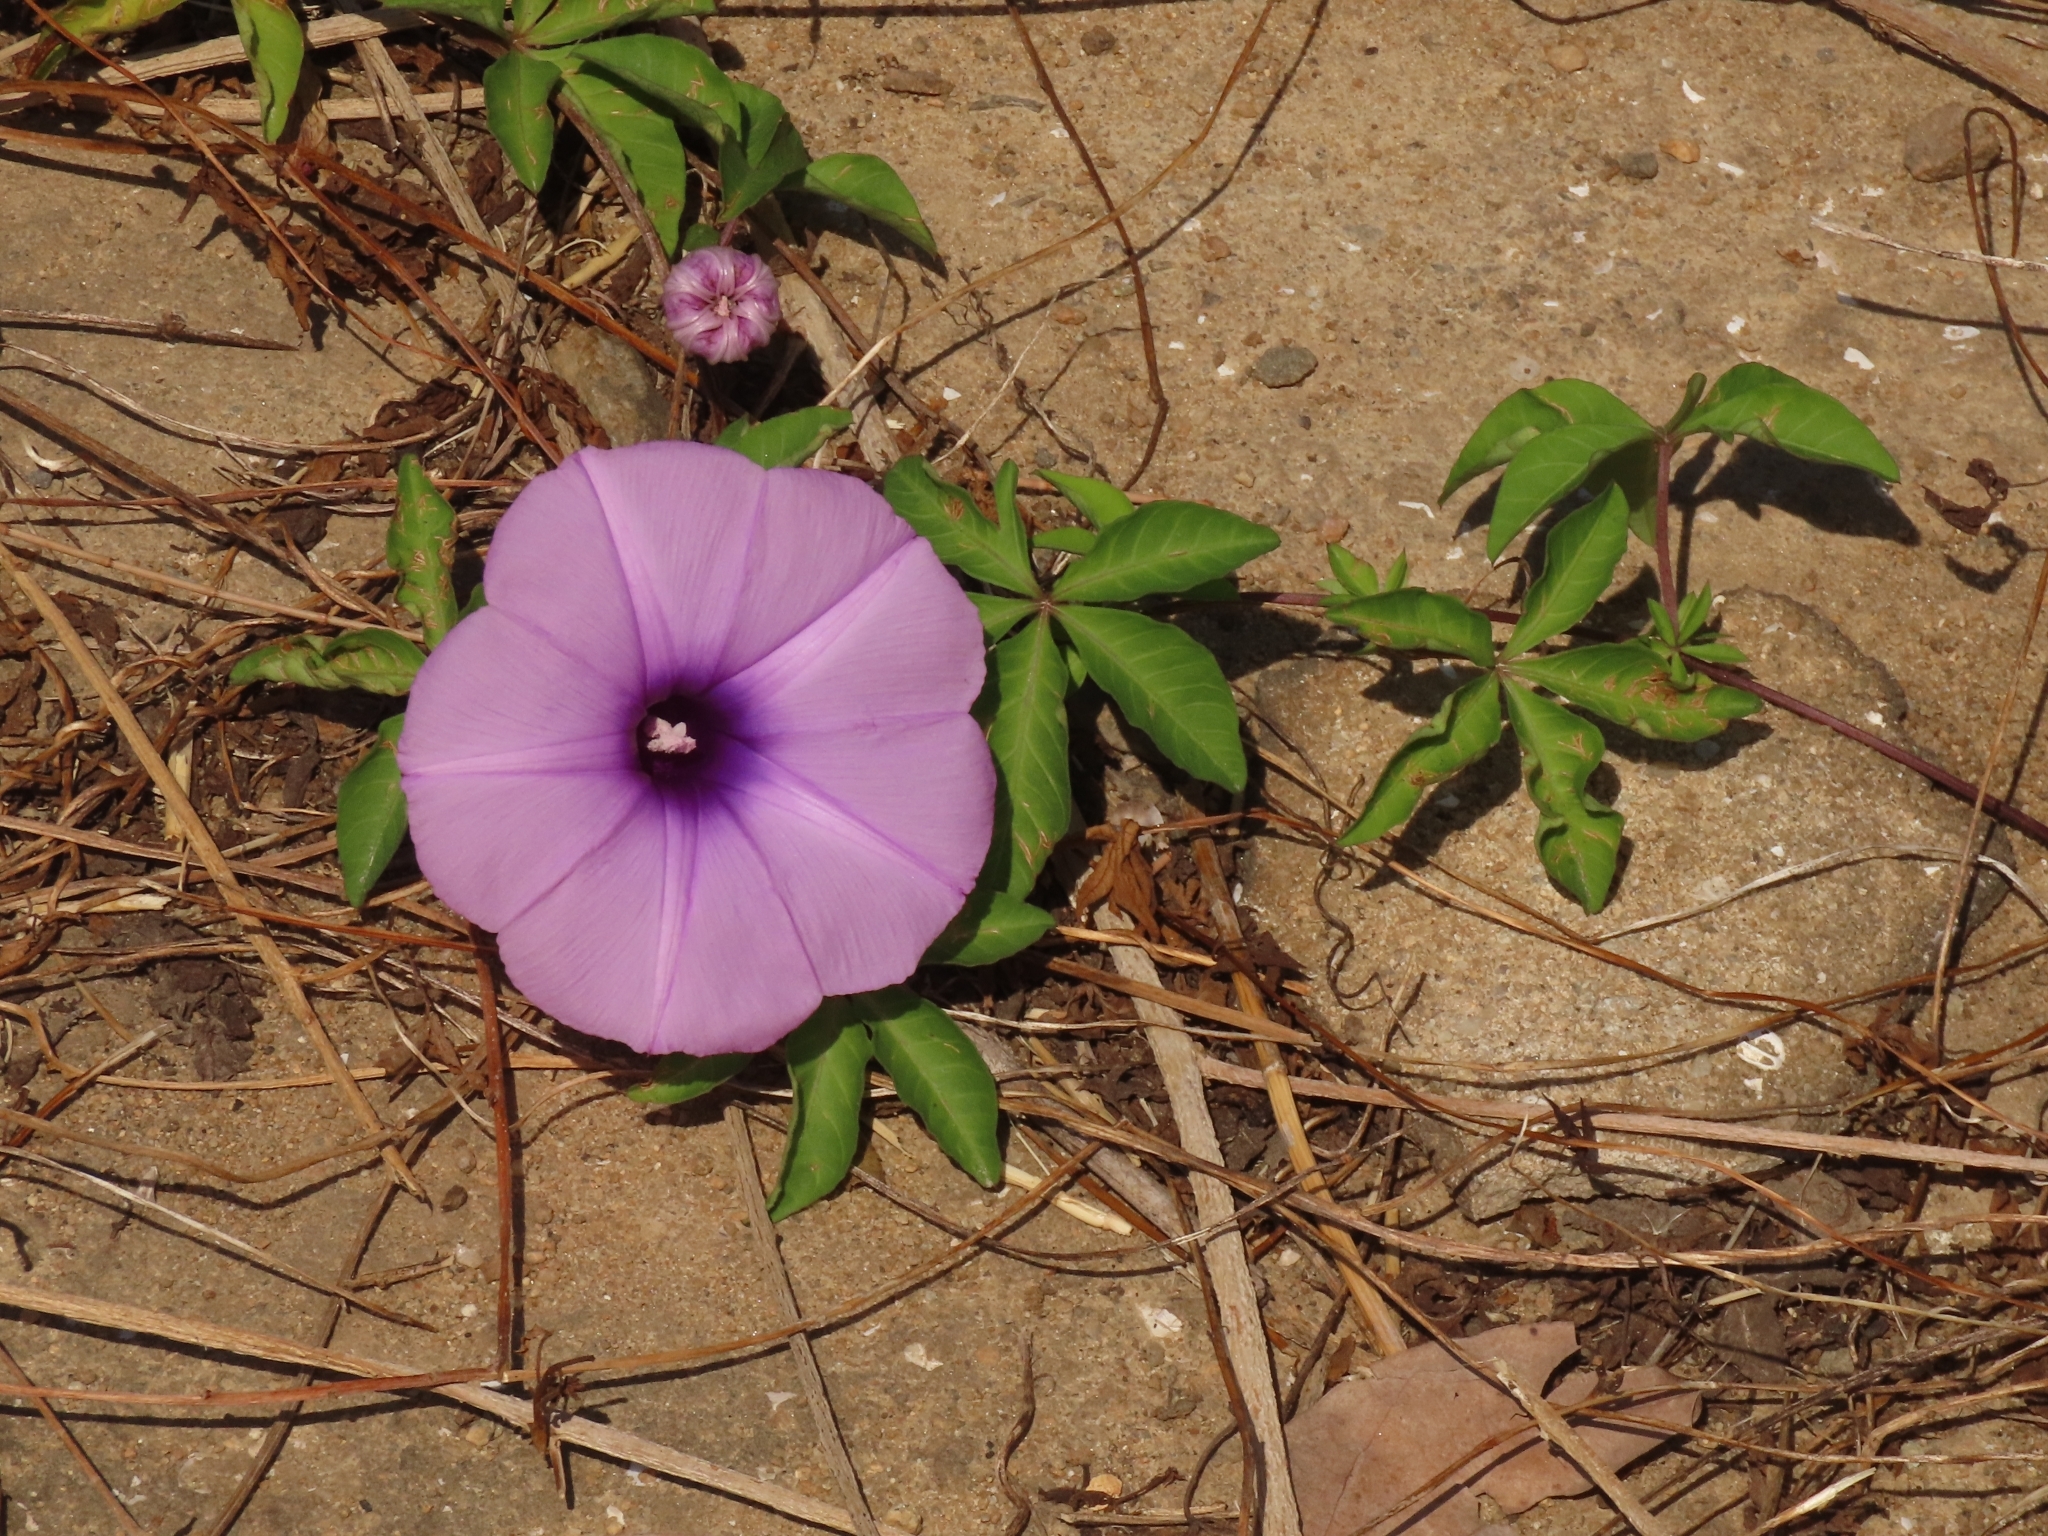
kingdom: Plantae
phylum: Tracheophyta
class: Magnoliopsida
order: Solanales
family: Convolvulaceae
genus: Ipomoea
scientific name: Ipomoea cairica
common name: Mile a minute vine
